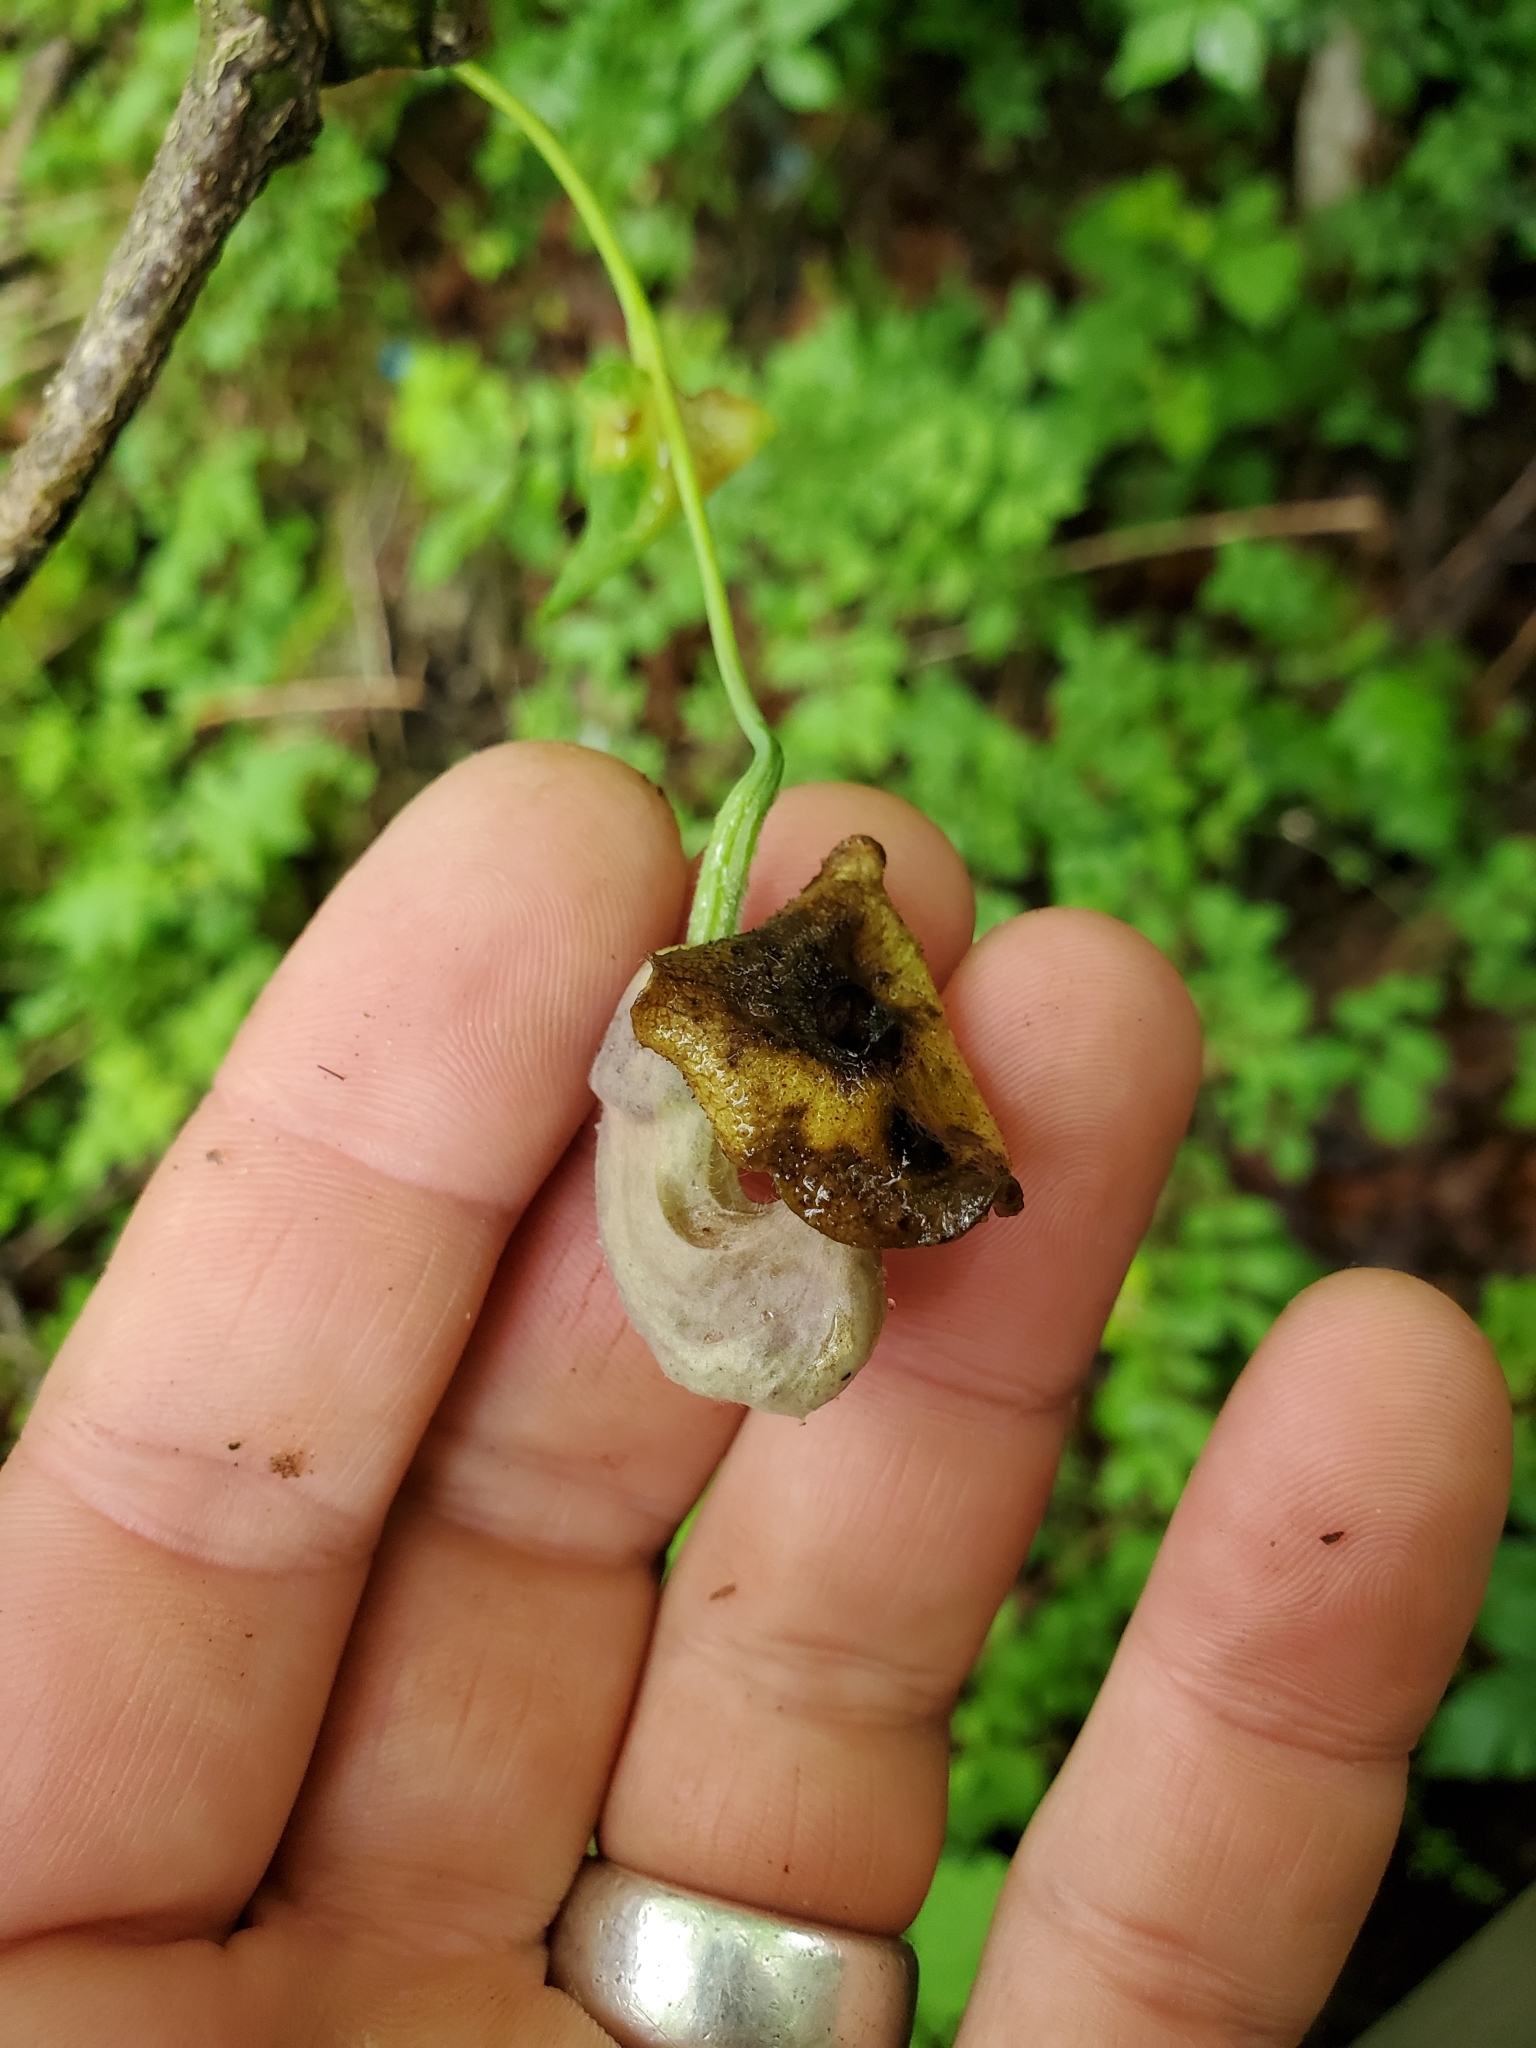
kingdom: Plantae
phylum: Tracheophyta
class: Magnoliopsida
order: Piperales
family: Aristolochiaceae
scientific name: Aristolochiaceae
